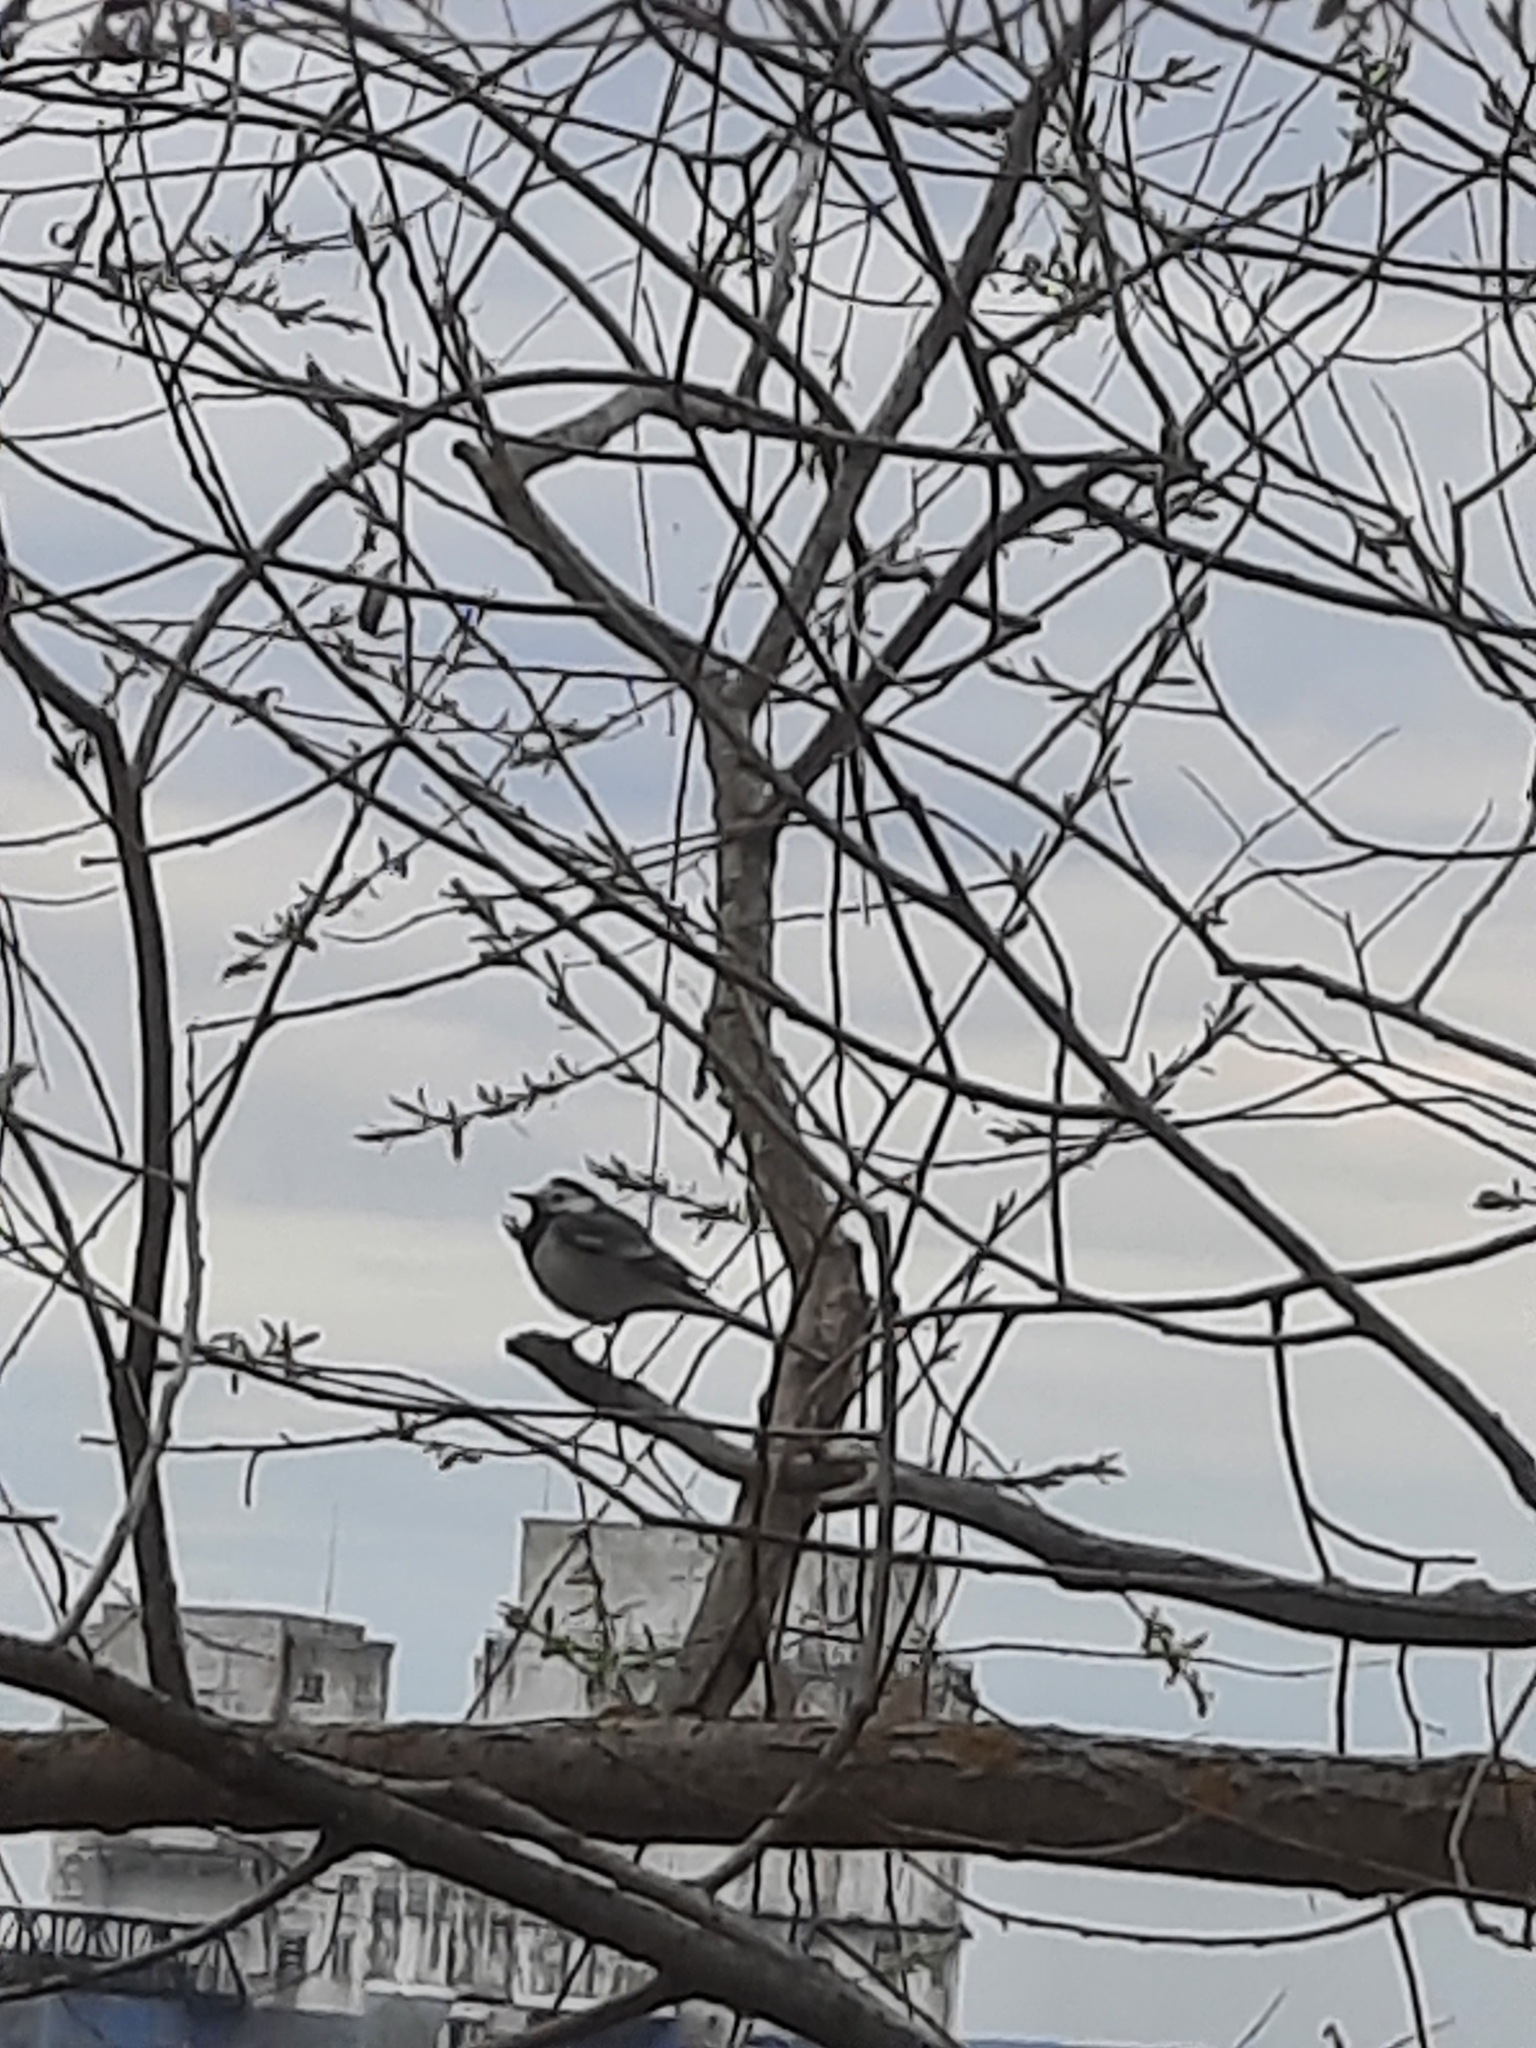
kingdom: Animalia
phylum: Chordata
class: Aves
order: Passeriformes
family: Motacillidae
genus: Motacilla
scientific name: Motacilla alba
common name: White wagtail
